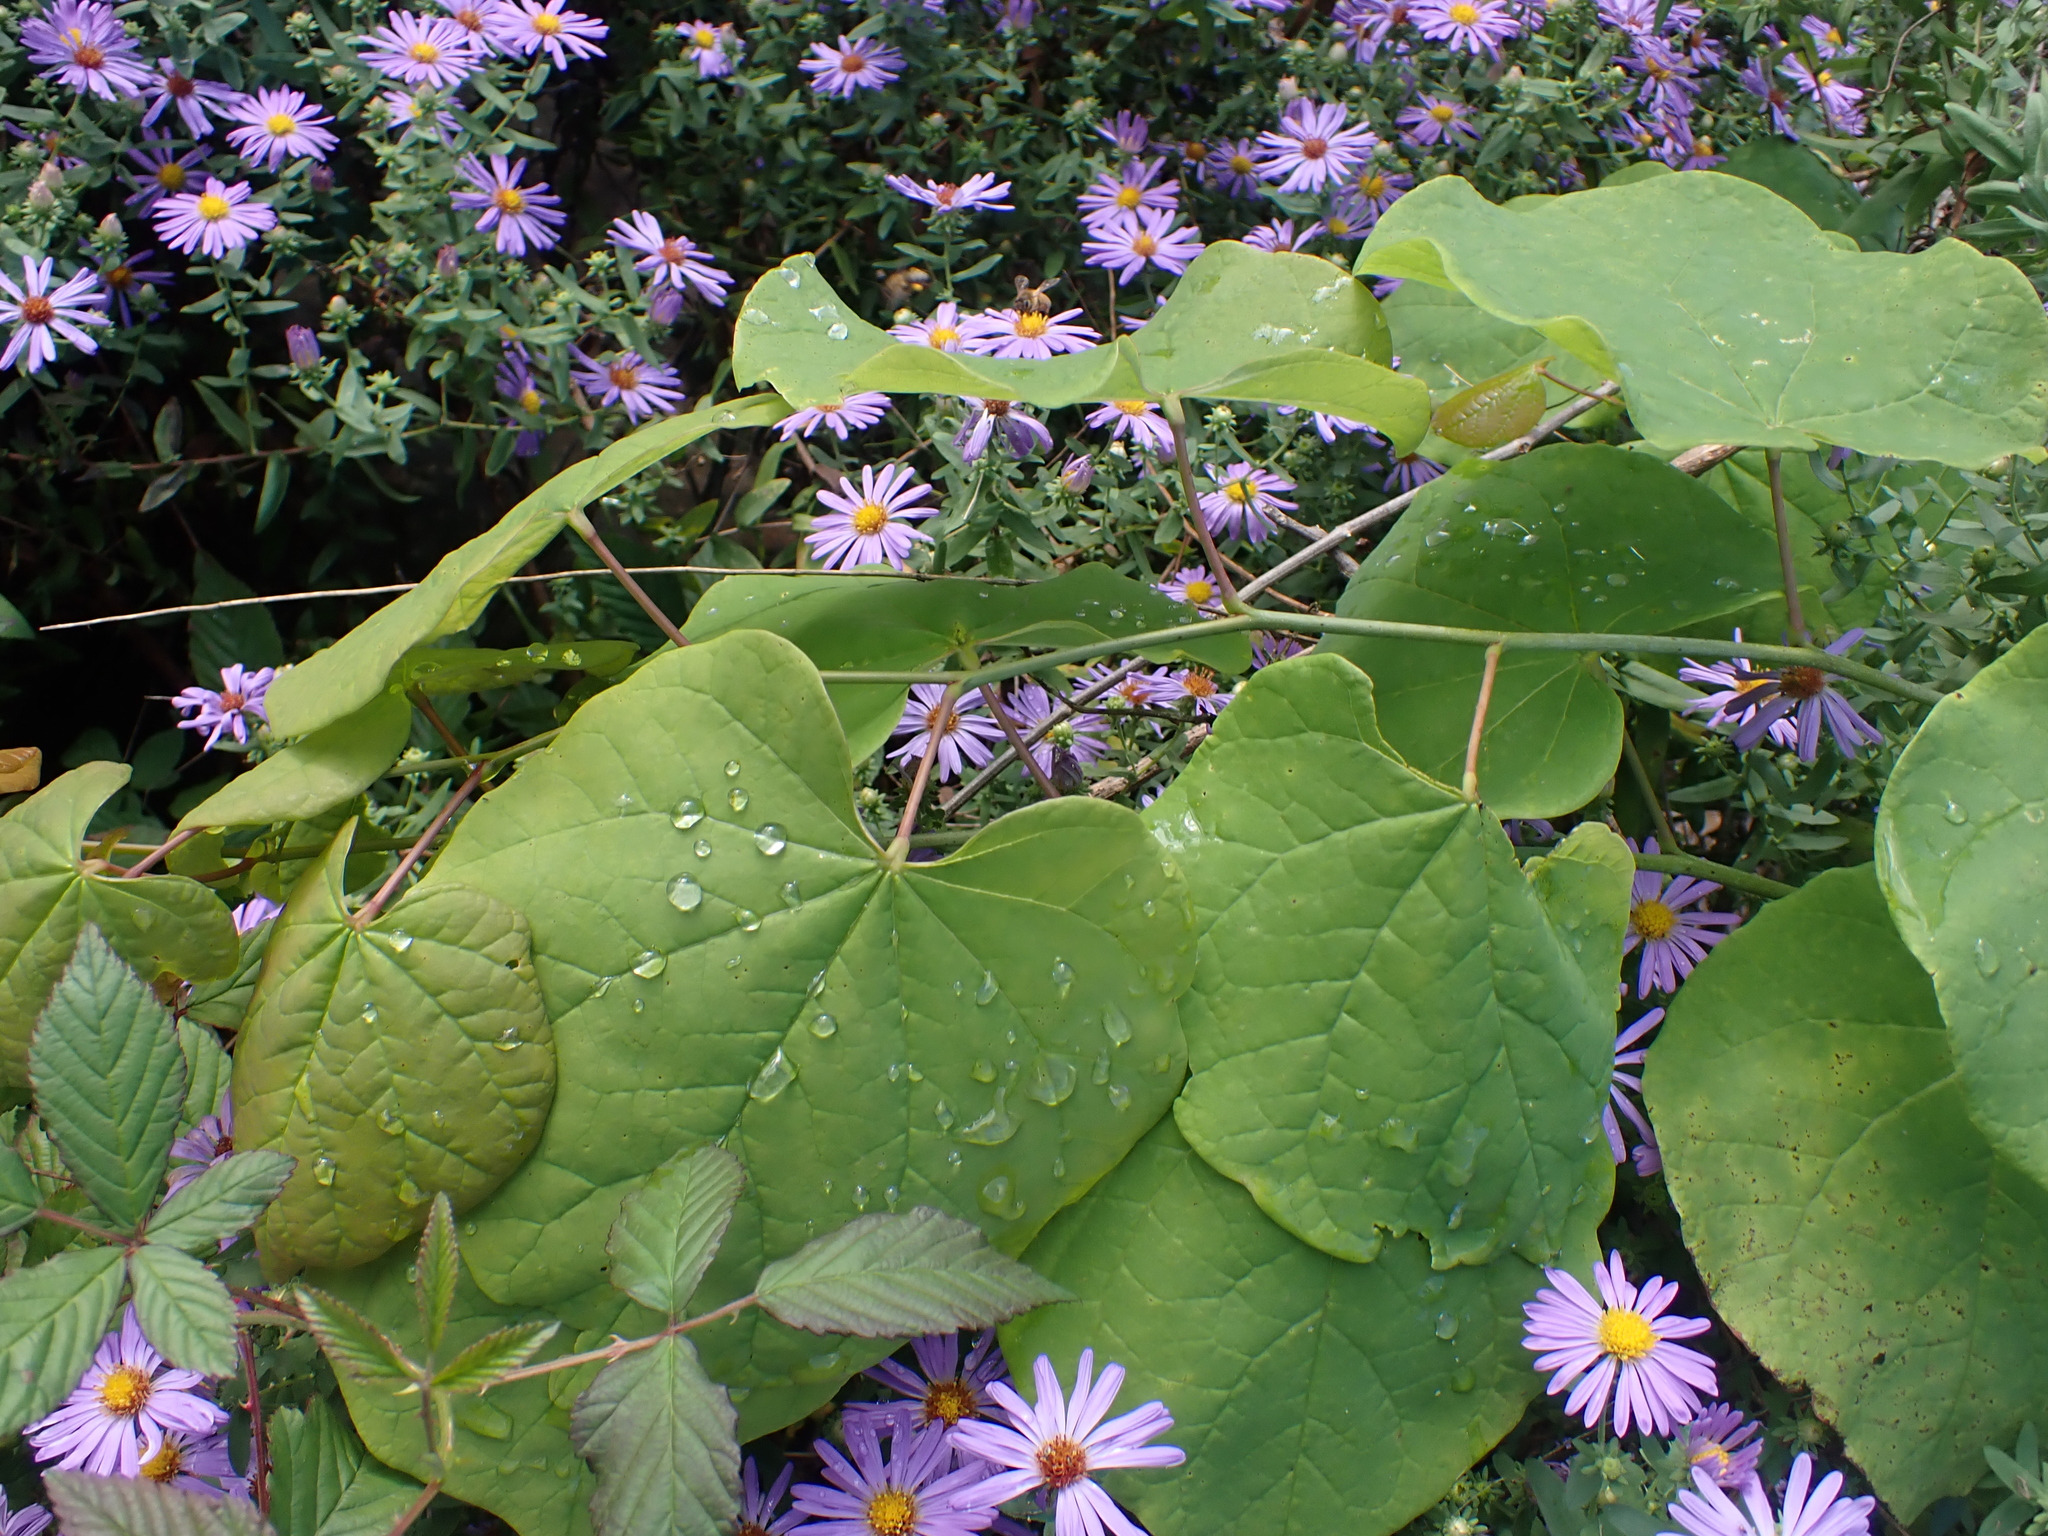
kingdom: Plantae
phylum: Tracheophyta
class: Magnoliopsida
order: Fabales
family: Fabaceae
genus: Cercis
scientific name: Cercis canadensis
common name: Eastern redbud
